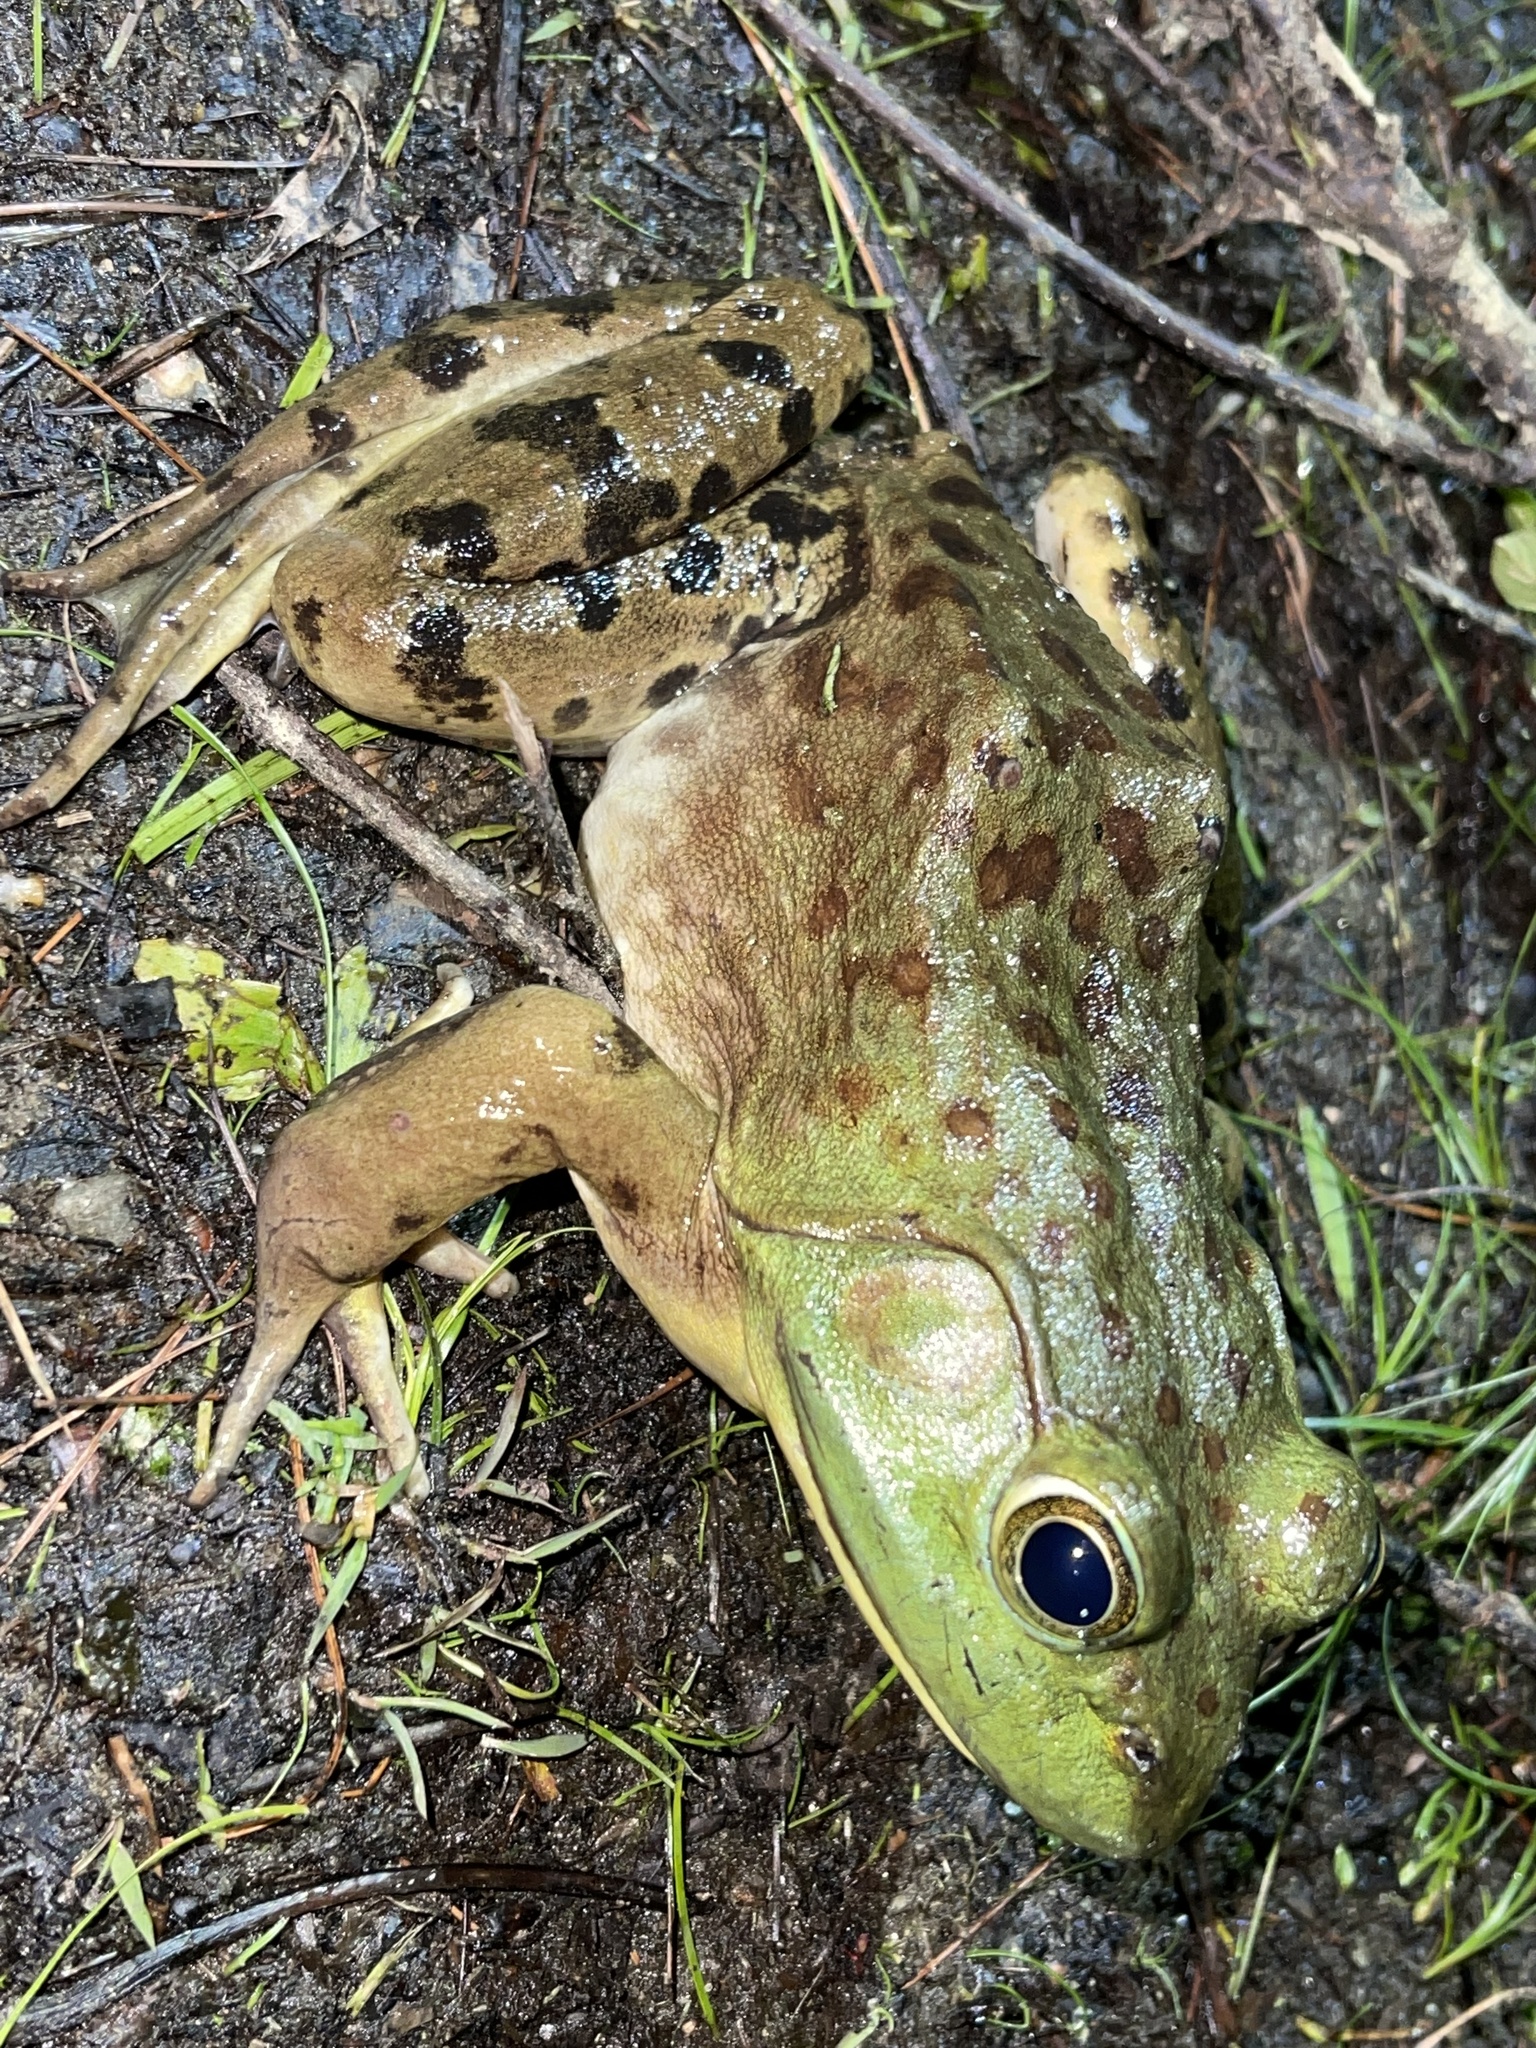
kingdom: Animalia
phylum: Chordata
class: Amphibia
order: Anura
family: Ranidae
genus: Lithobates
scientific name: Lithobates catesbeianus
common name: American bullfrog
